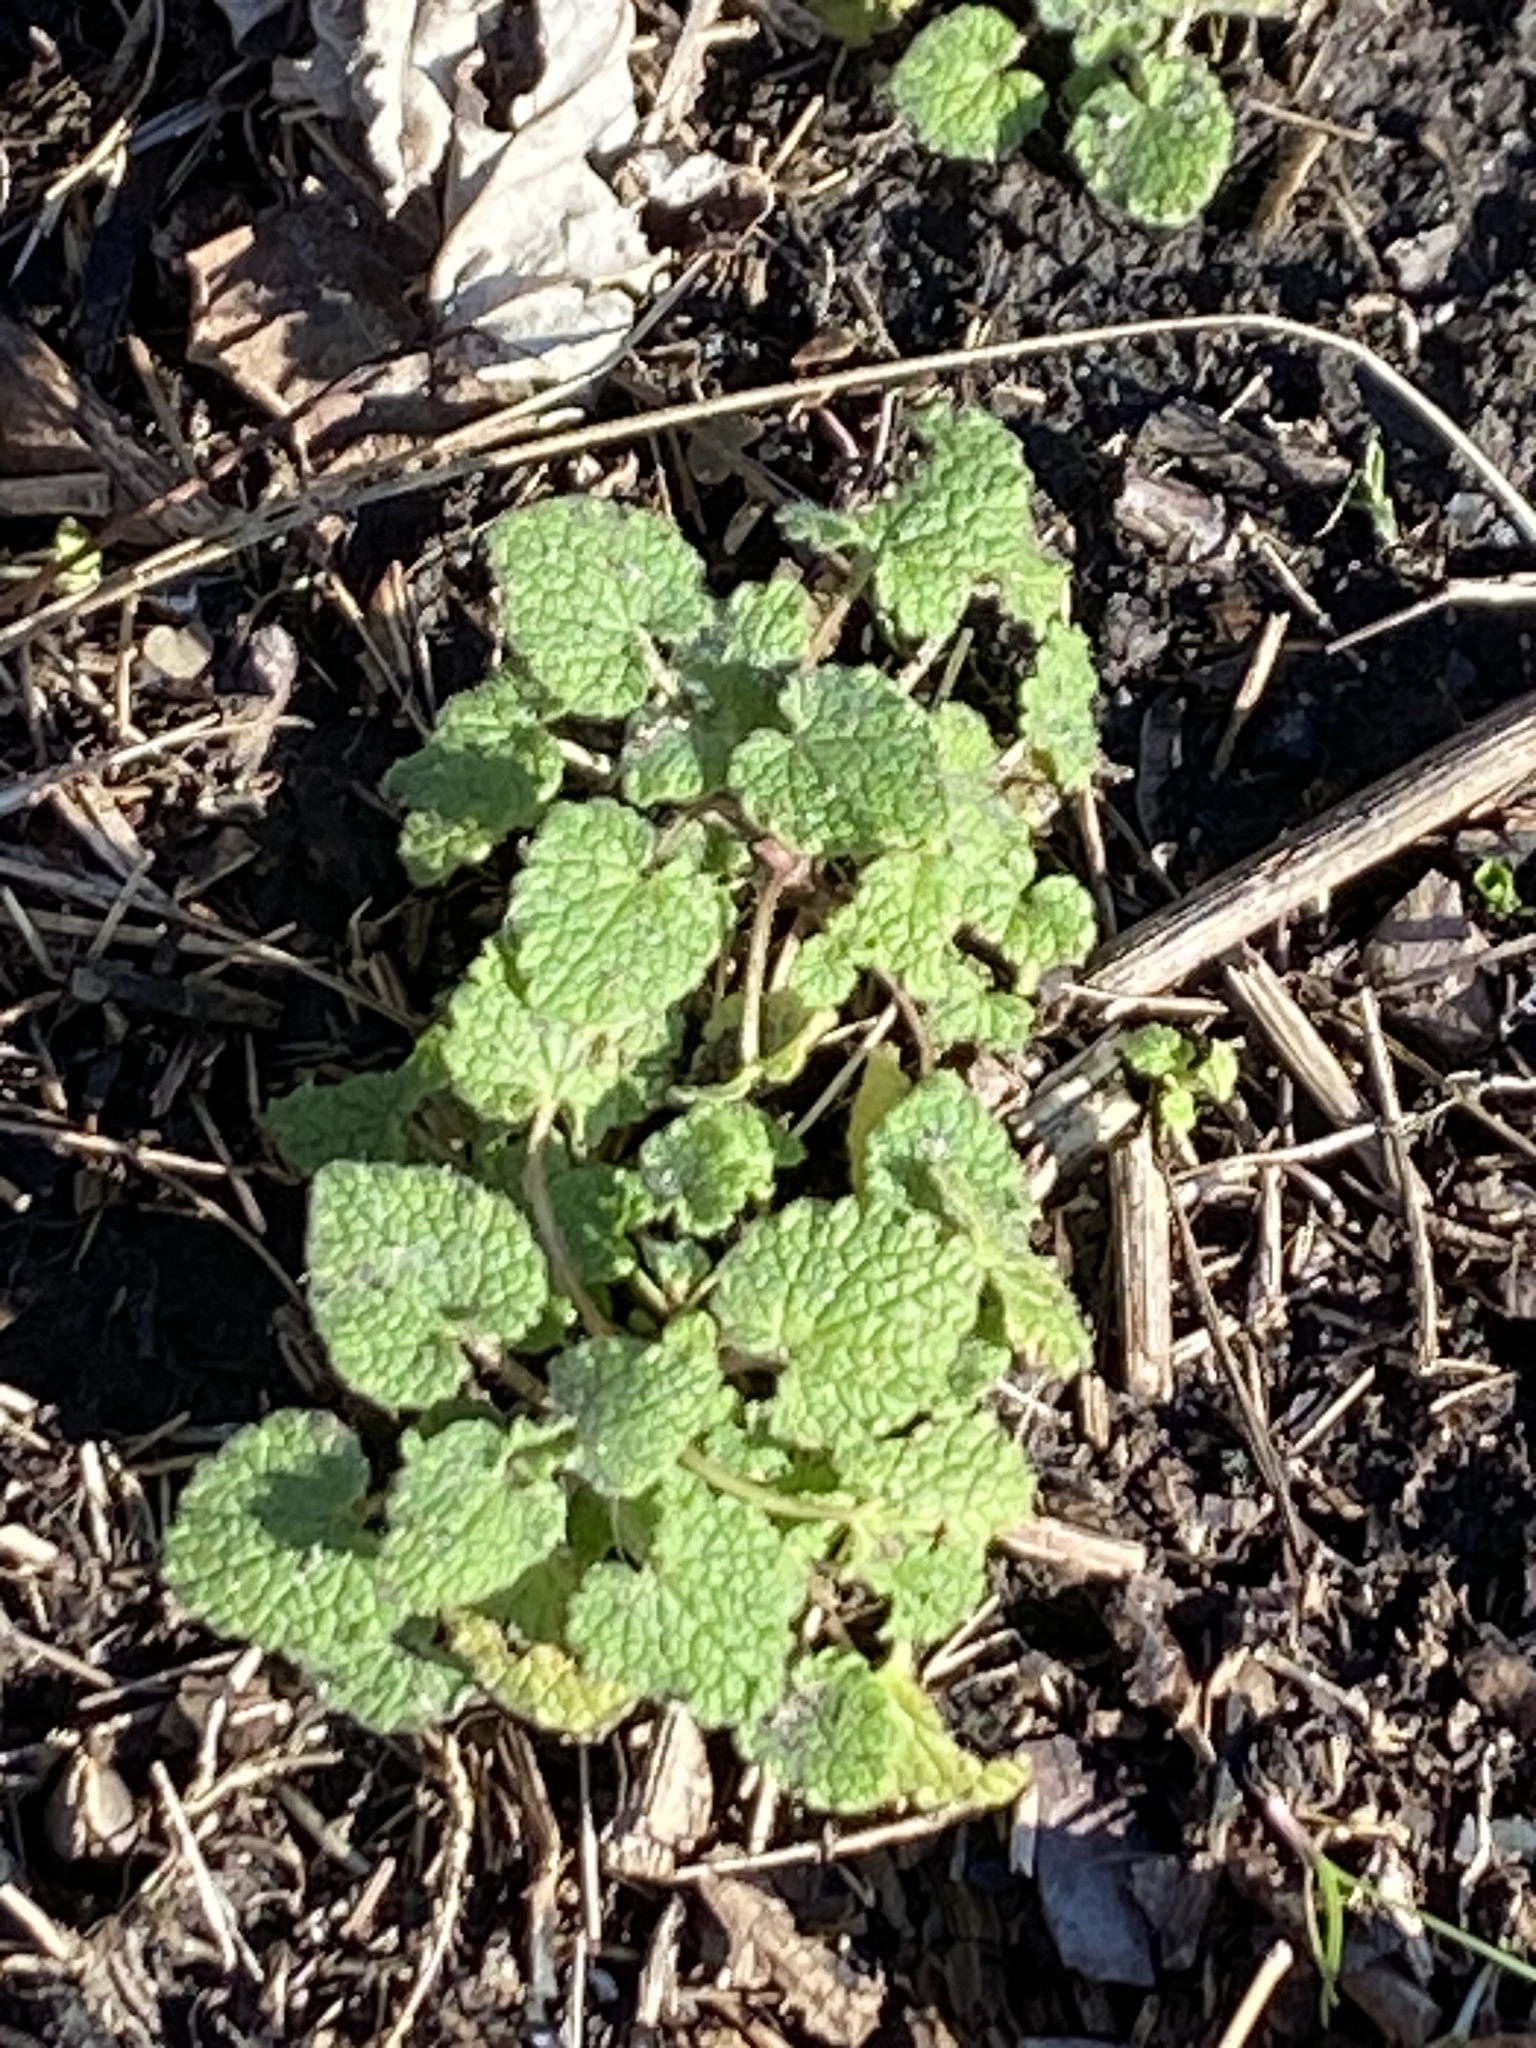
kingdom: Plantae
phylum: Tracheophyta
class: Magnoliopsida
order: Lamiales
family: Lamiaceae
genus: Lamium
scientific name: Lamium purpureum
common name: Red dead-nettle
